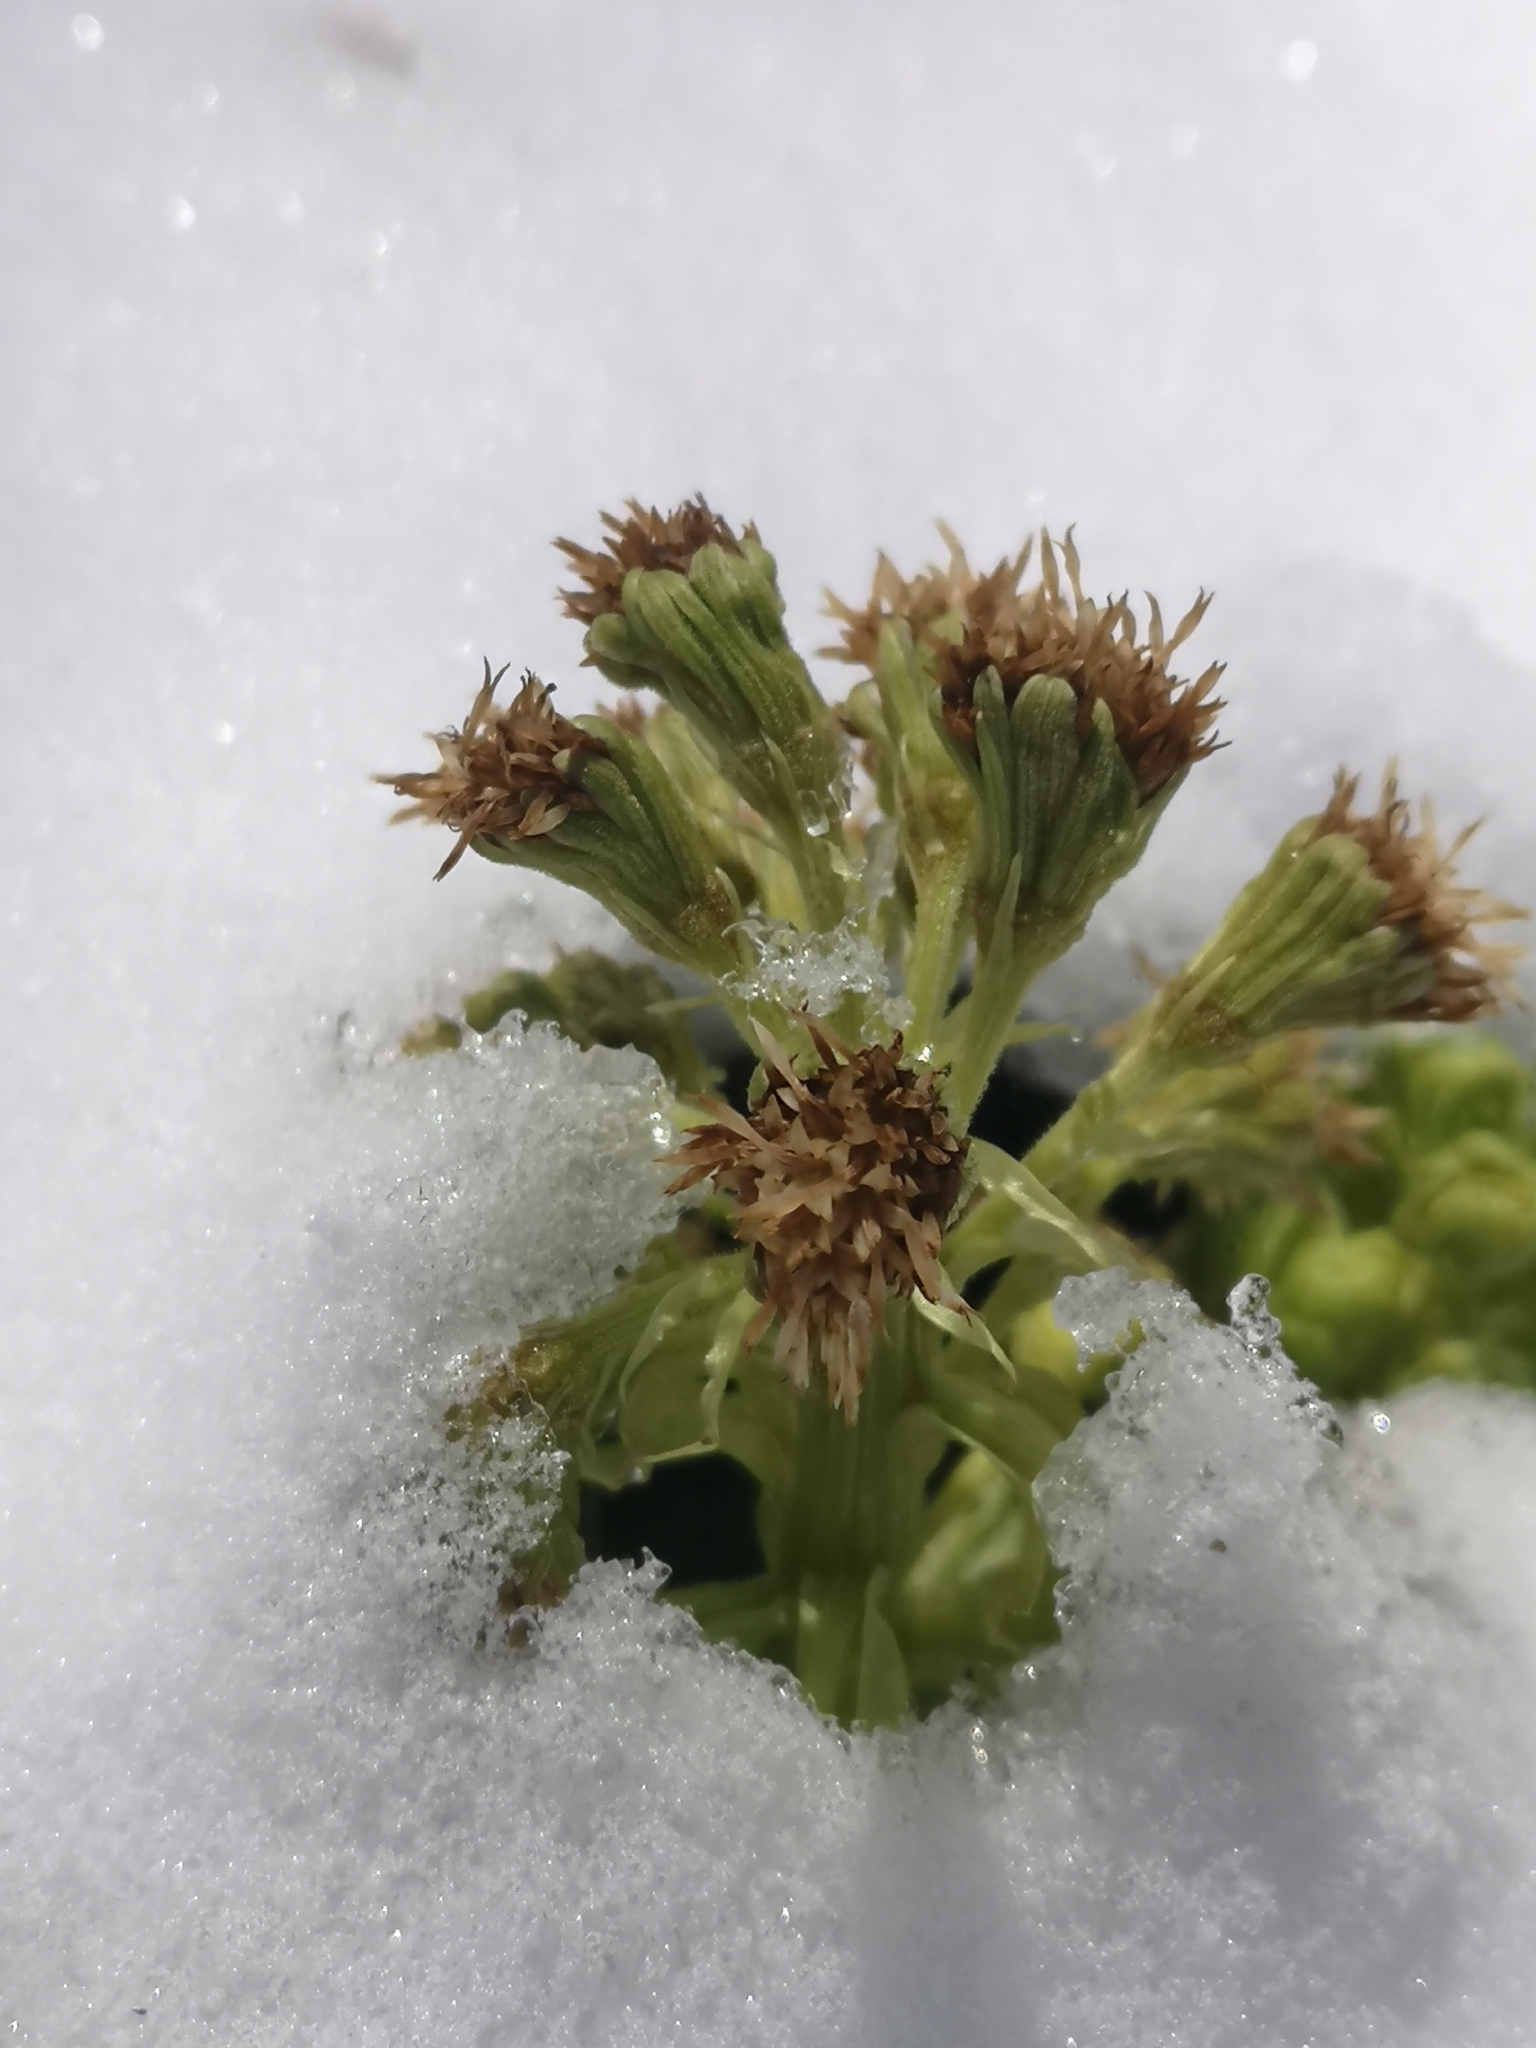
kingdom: Plantae
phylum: Tracheophyta
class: Magnoliopsida
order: Asterales
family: Asteraceae
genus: Petasites
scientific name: Petasites albus
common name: White butterbur
